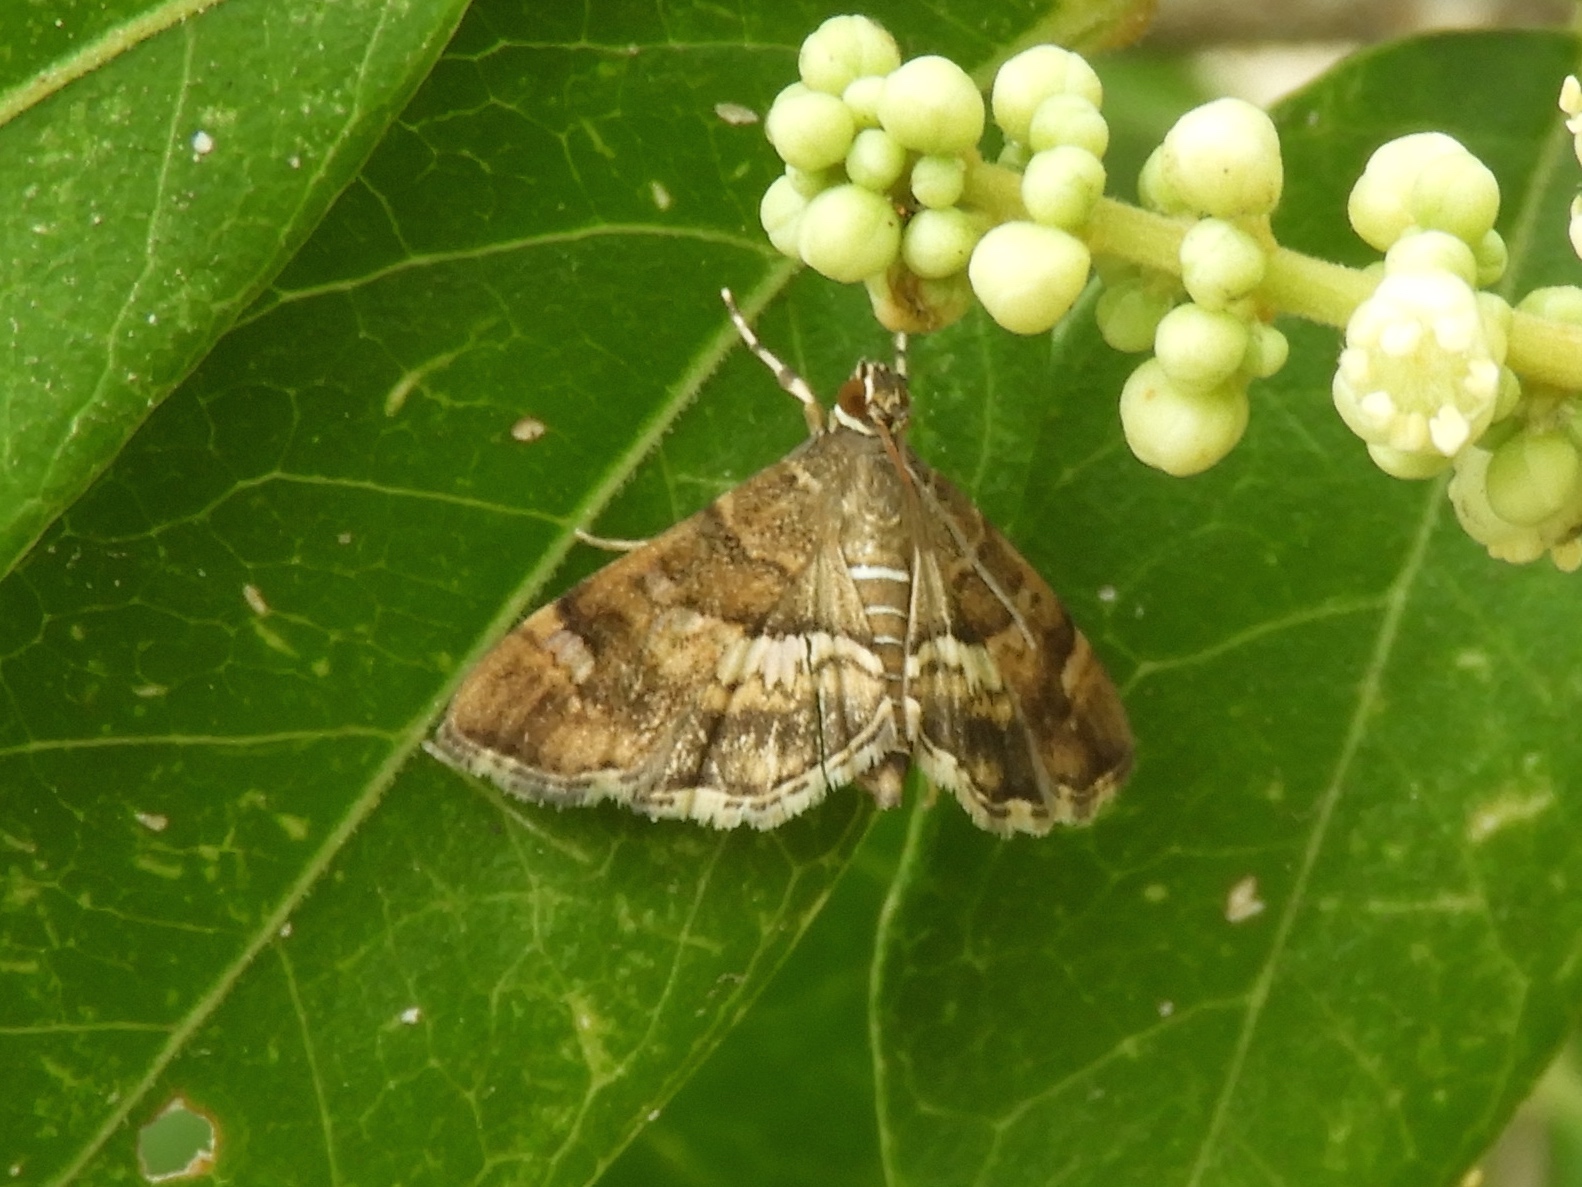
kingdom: Animalia
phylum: Arthropoda
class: Insecta
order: Lepidoptera
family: Crambidae
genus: Hymenia
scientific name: Hymenia perspectalis
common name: Spotted beet webworm
